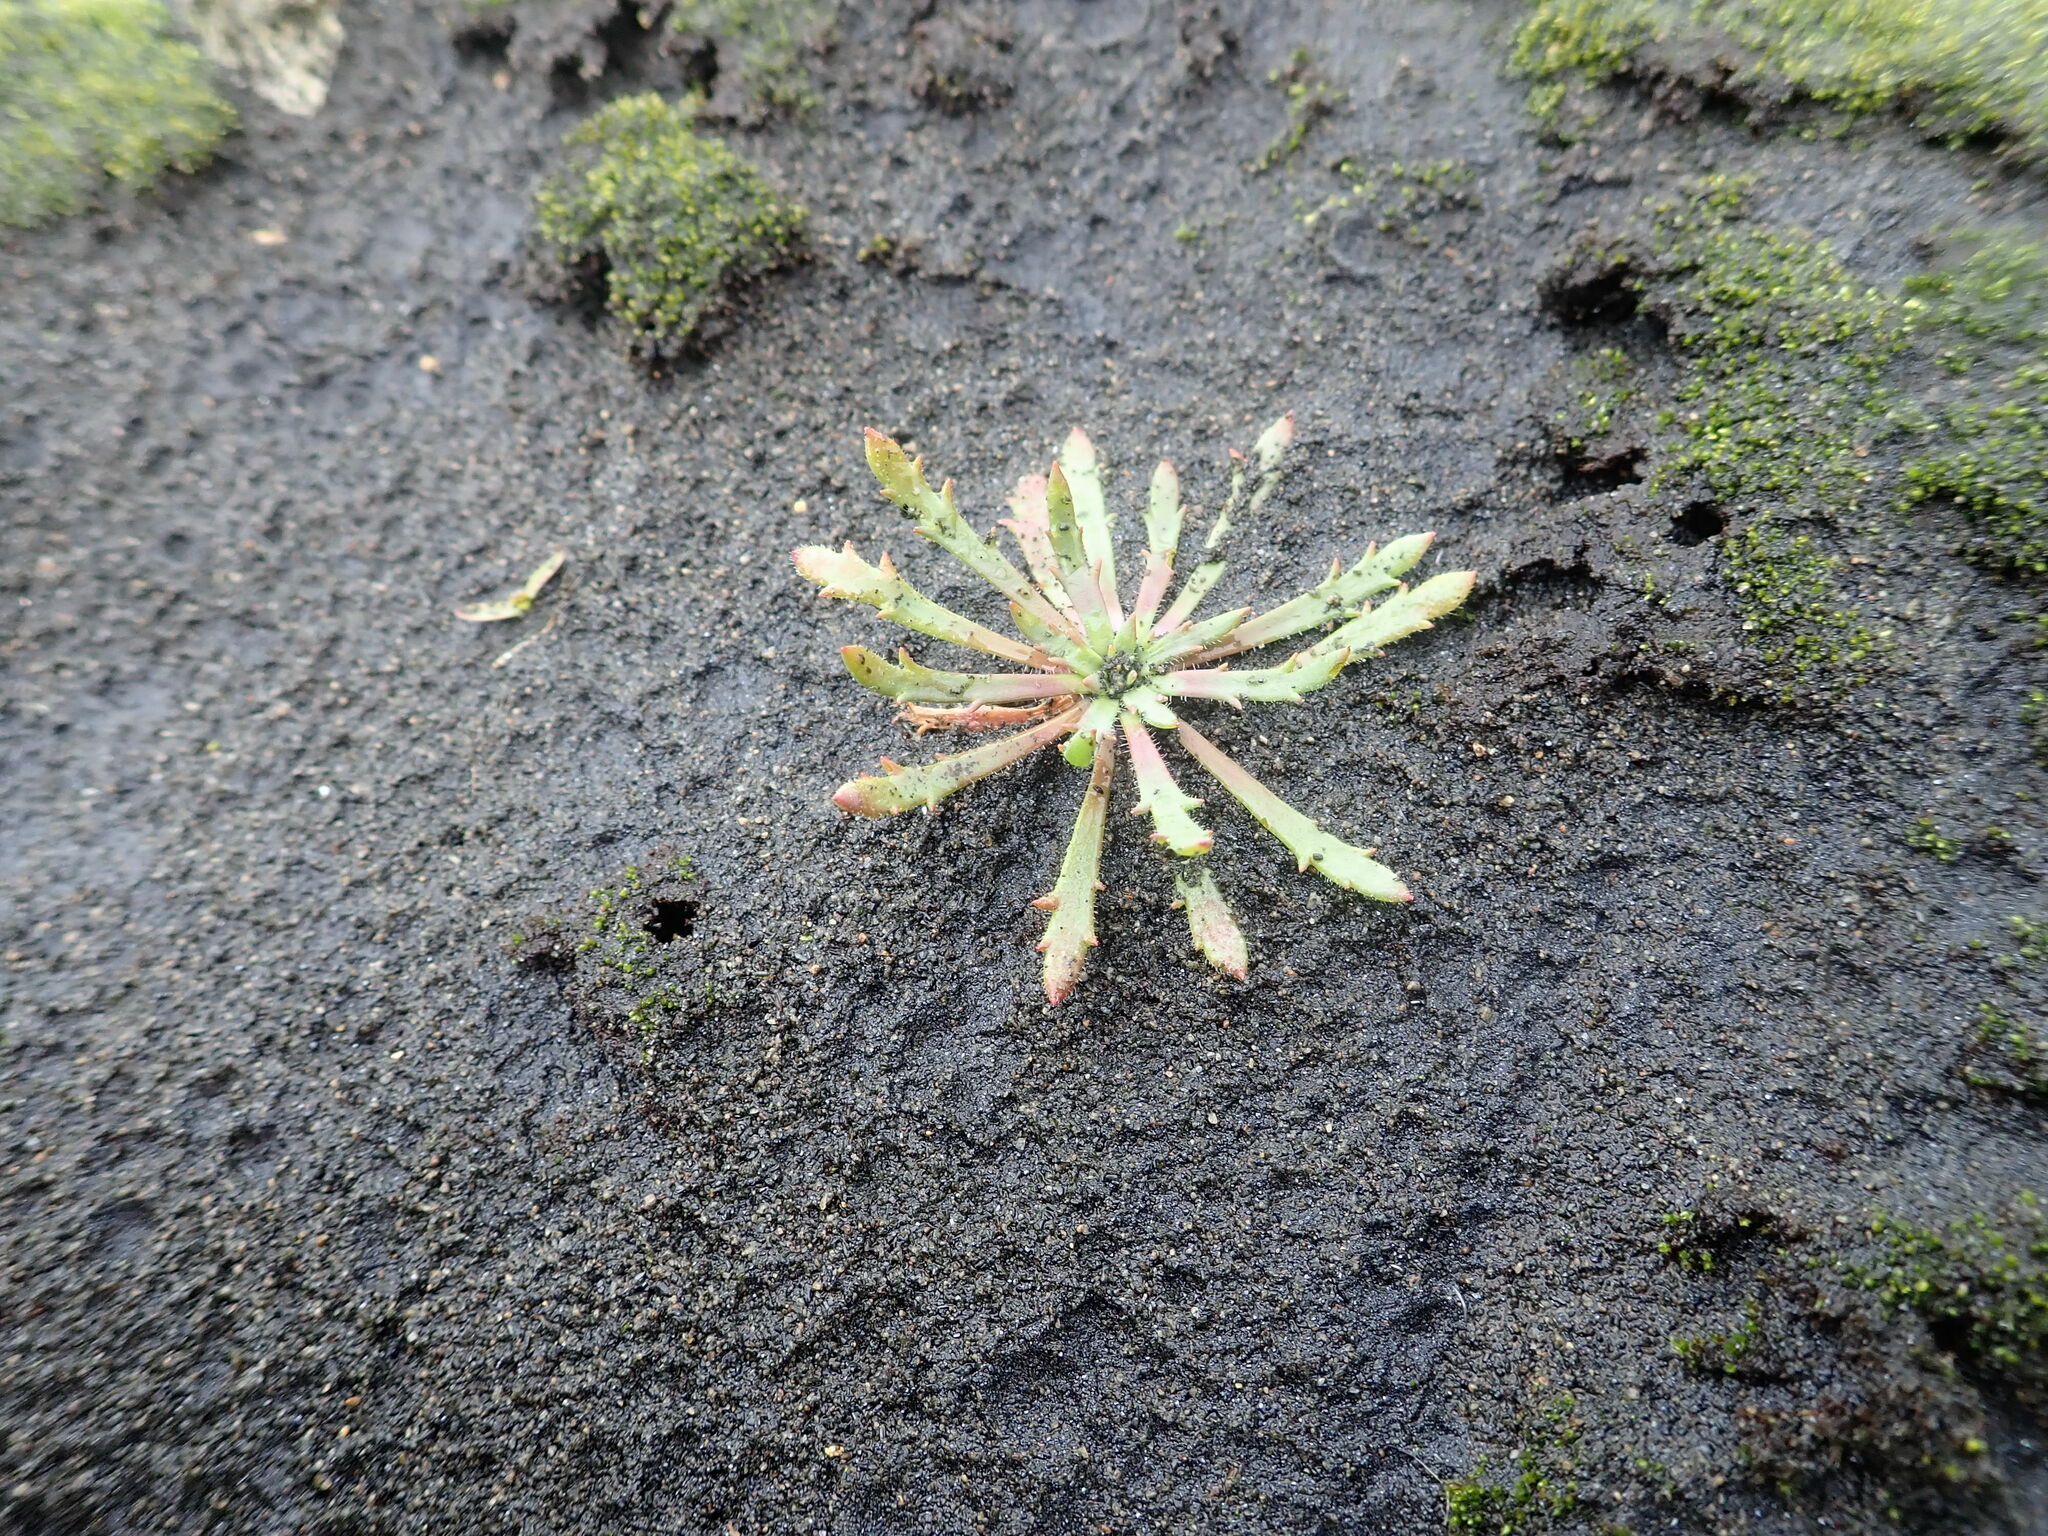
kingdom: Plantae
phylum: Tracheophyta
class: Magnoliopsida
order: Lamiales
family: Plantaginaceae
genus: Plantago
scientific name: Plantago coronopus
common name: Buck's-horn plantain
